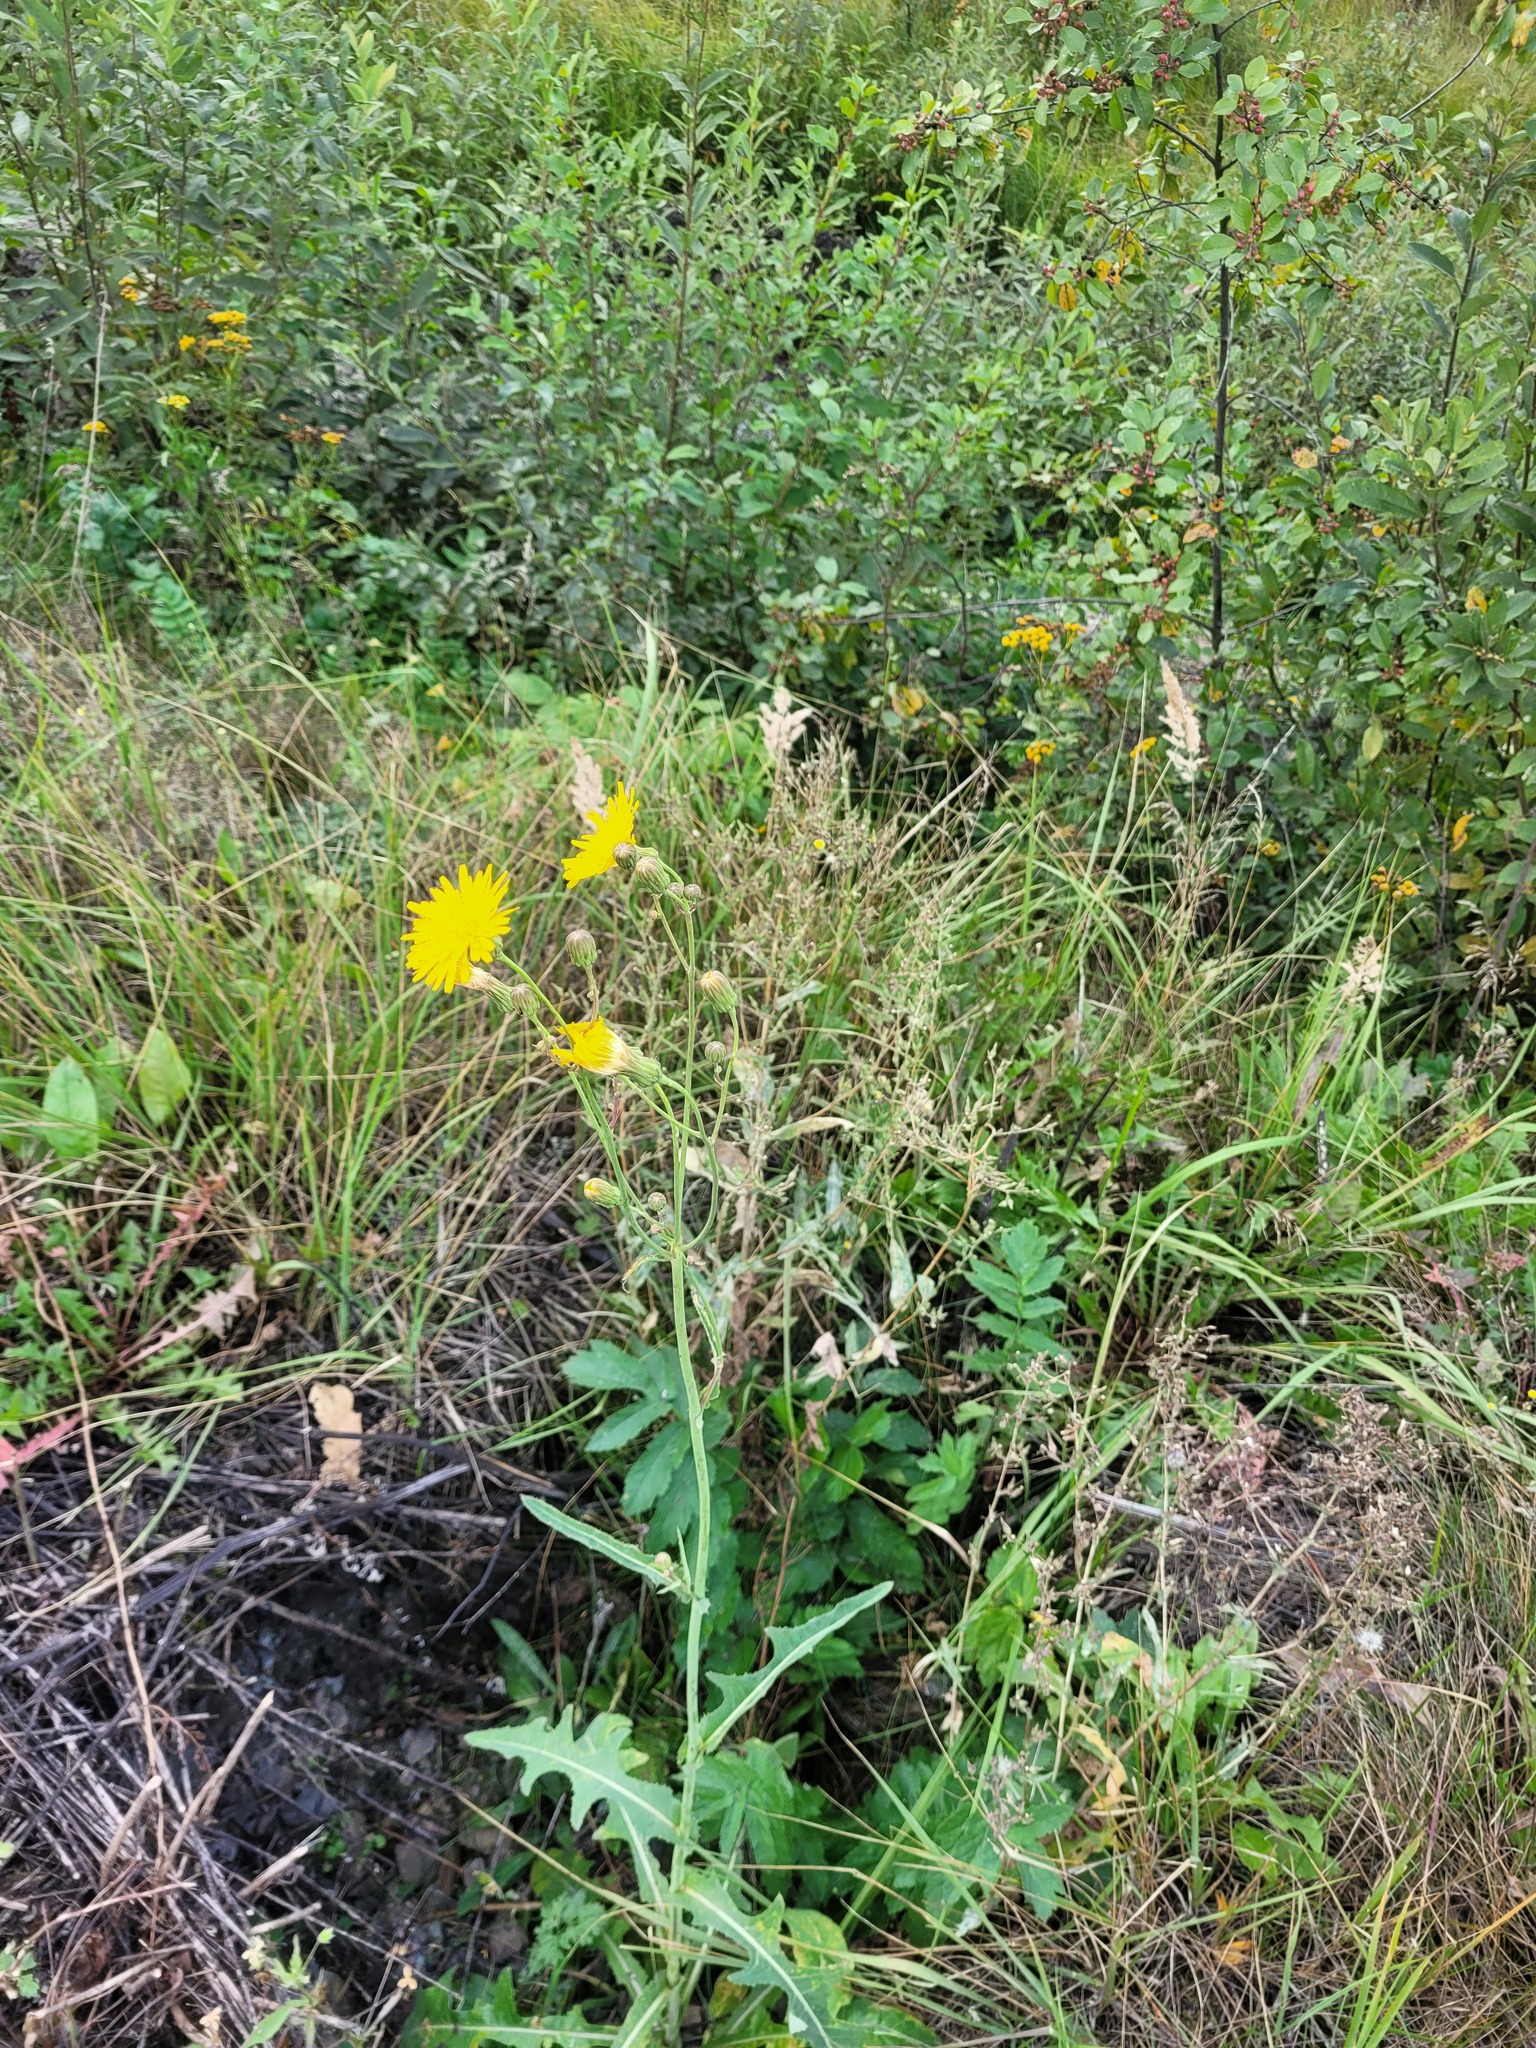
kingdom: Plantae
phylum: Tracheophyta
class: Magnoliopsida
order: Asterales
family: Asteraceae
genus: Sonchus
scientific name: Sonchus arvensis
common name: Perennial sow-thistle
